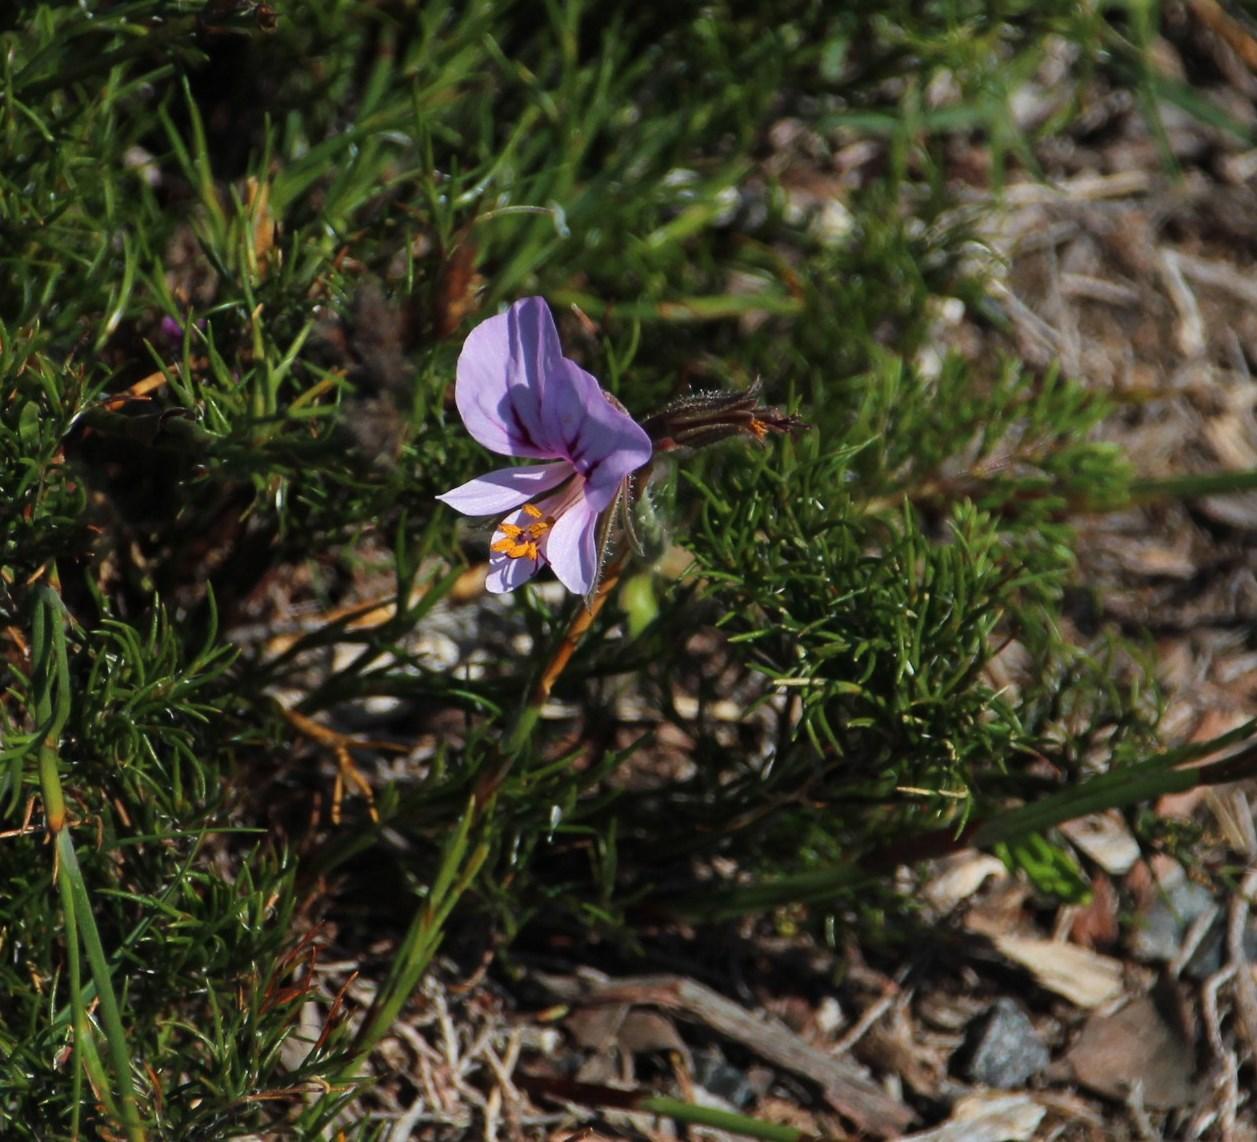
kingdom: Plantae
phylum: Tracheophyta
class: Magnoliopsida
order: Geraniales
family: Geraniaceae
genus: Pelargonium
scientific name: Pelargonium myrrhifolium
